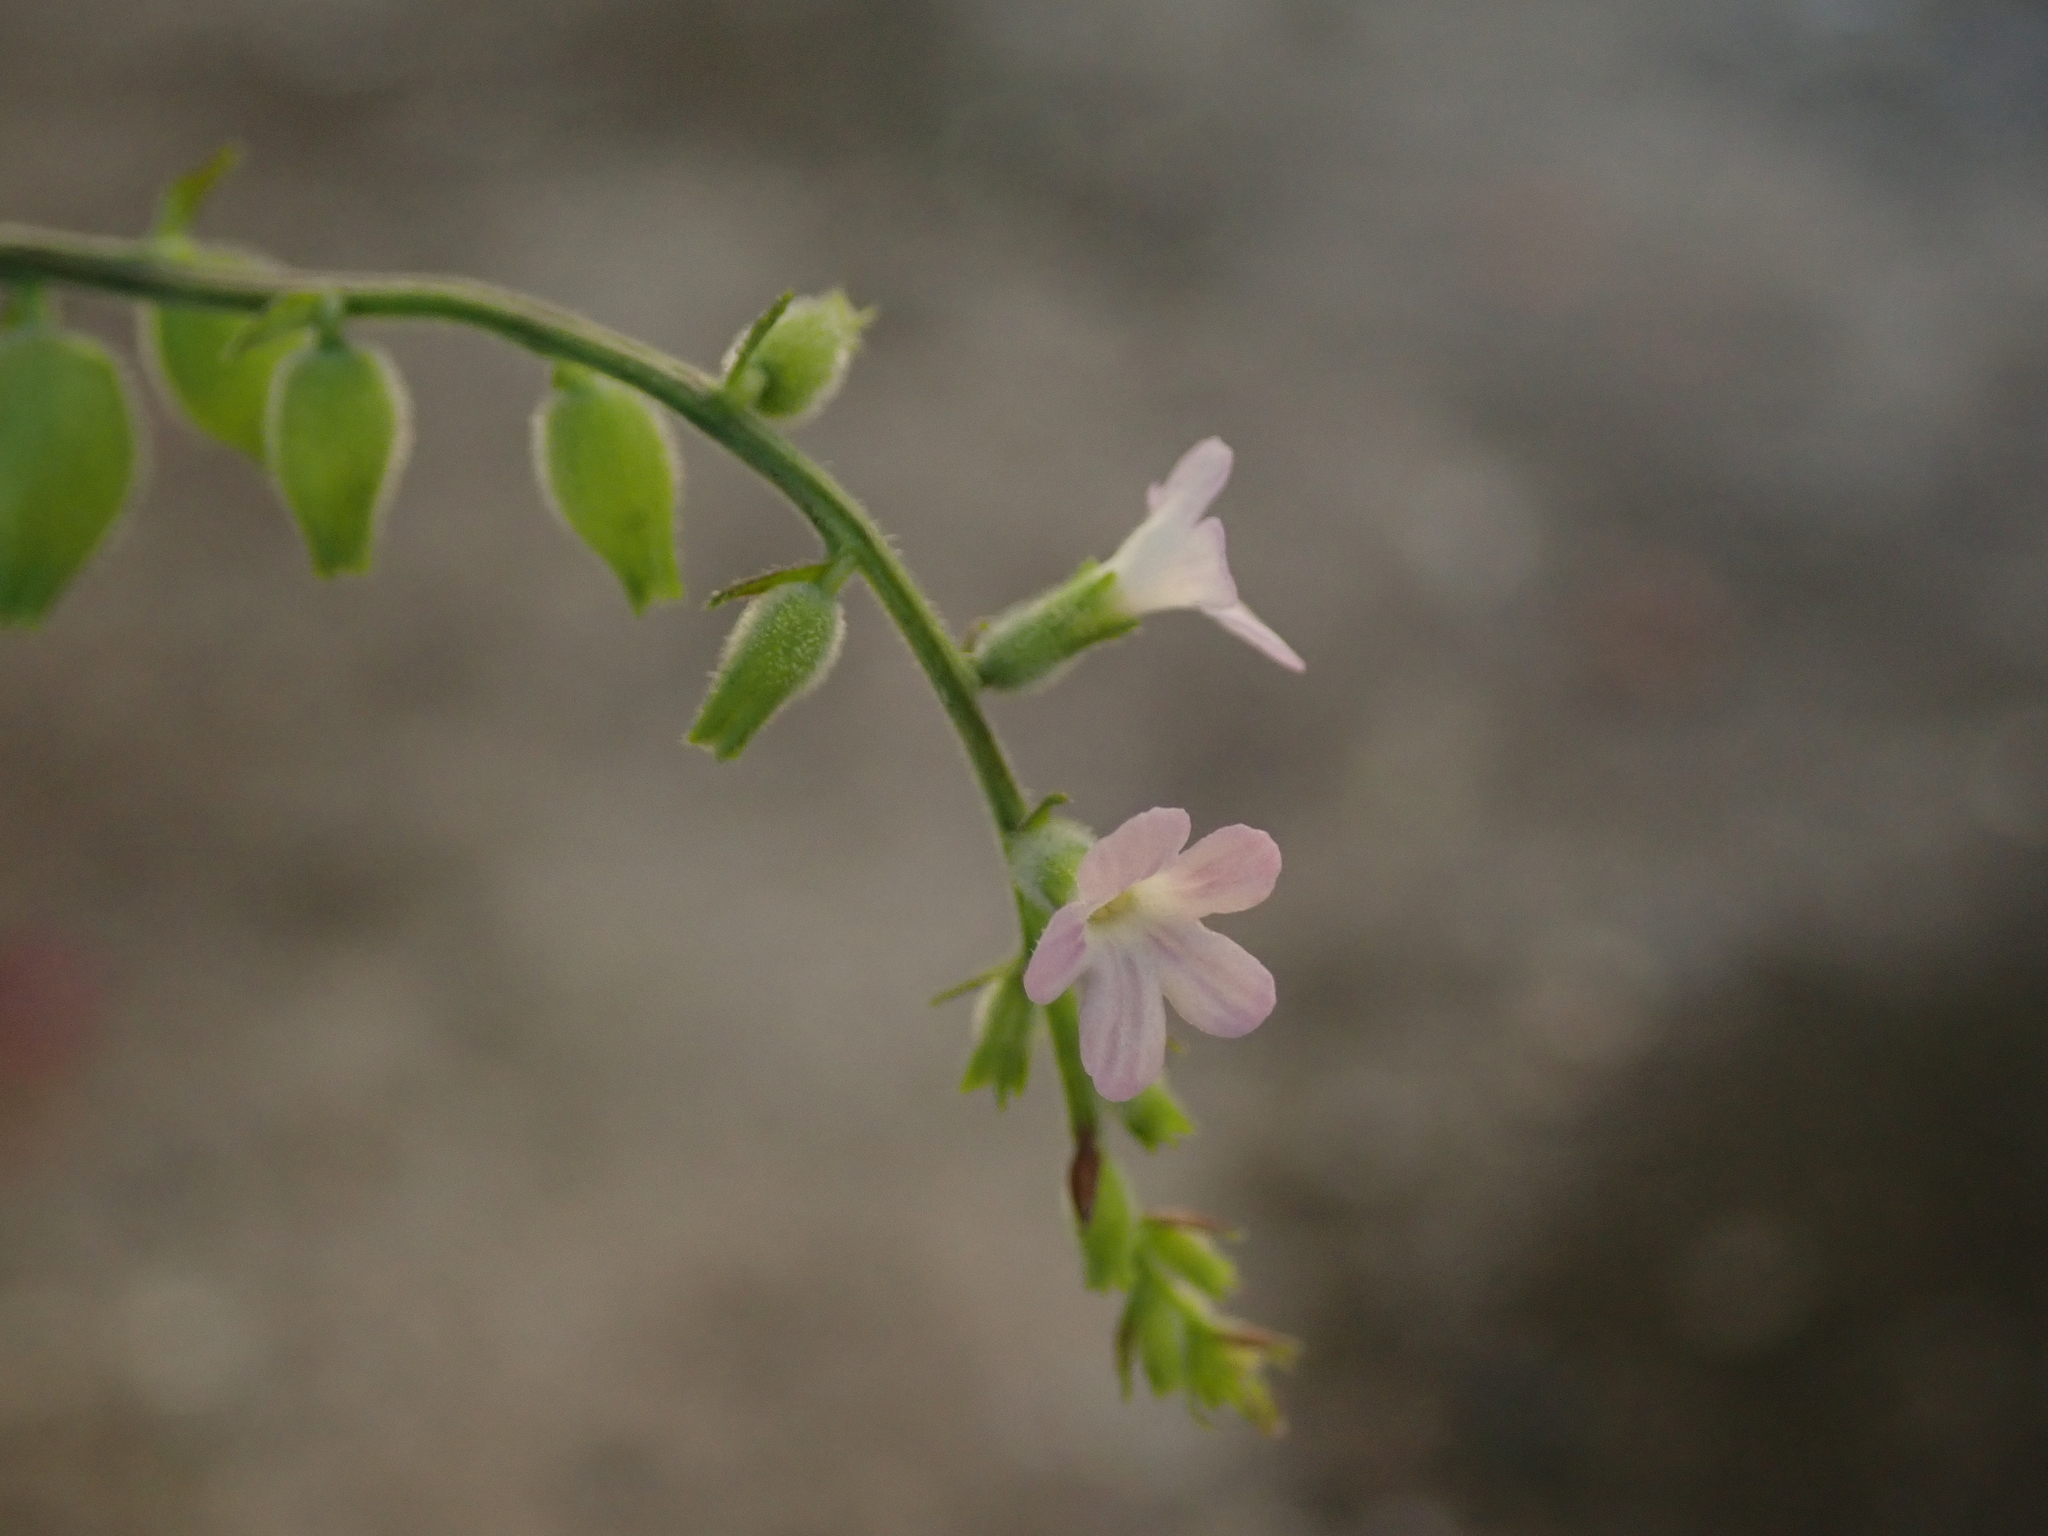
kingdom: Plantae
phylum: Tracheophyta
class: Magnoliopsida
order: Lamiales
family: Verbenaceae
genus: Priva
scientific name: Priva lappulacea
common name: Fasten-'pon-coat
